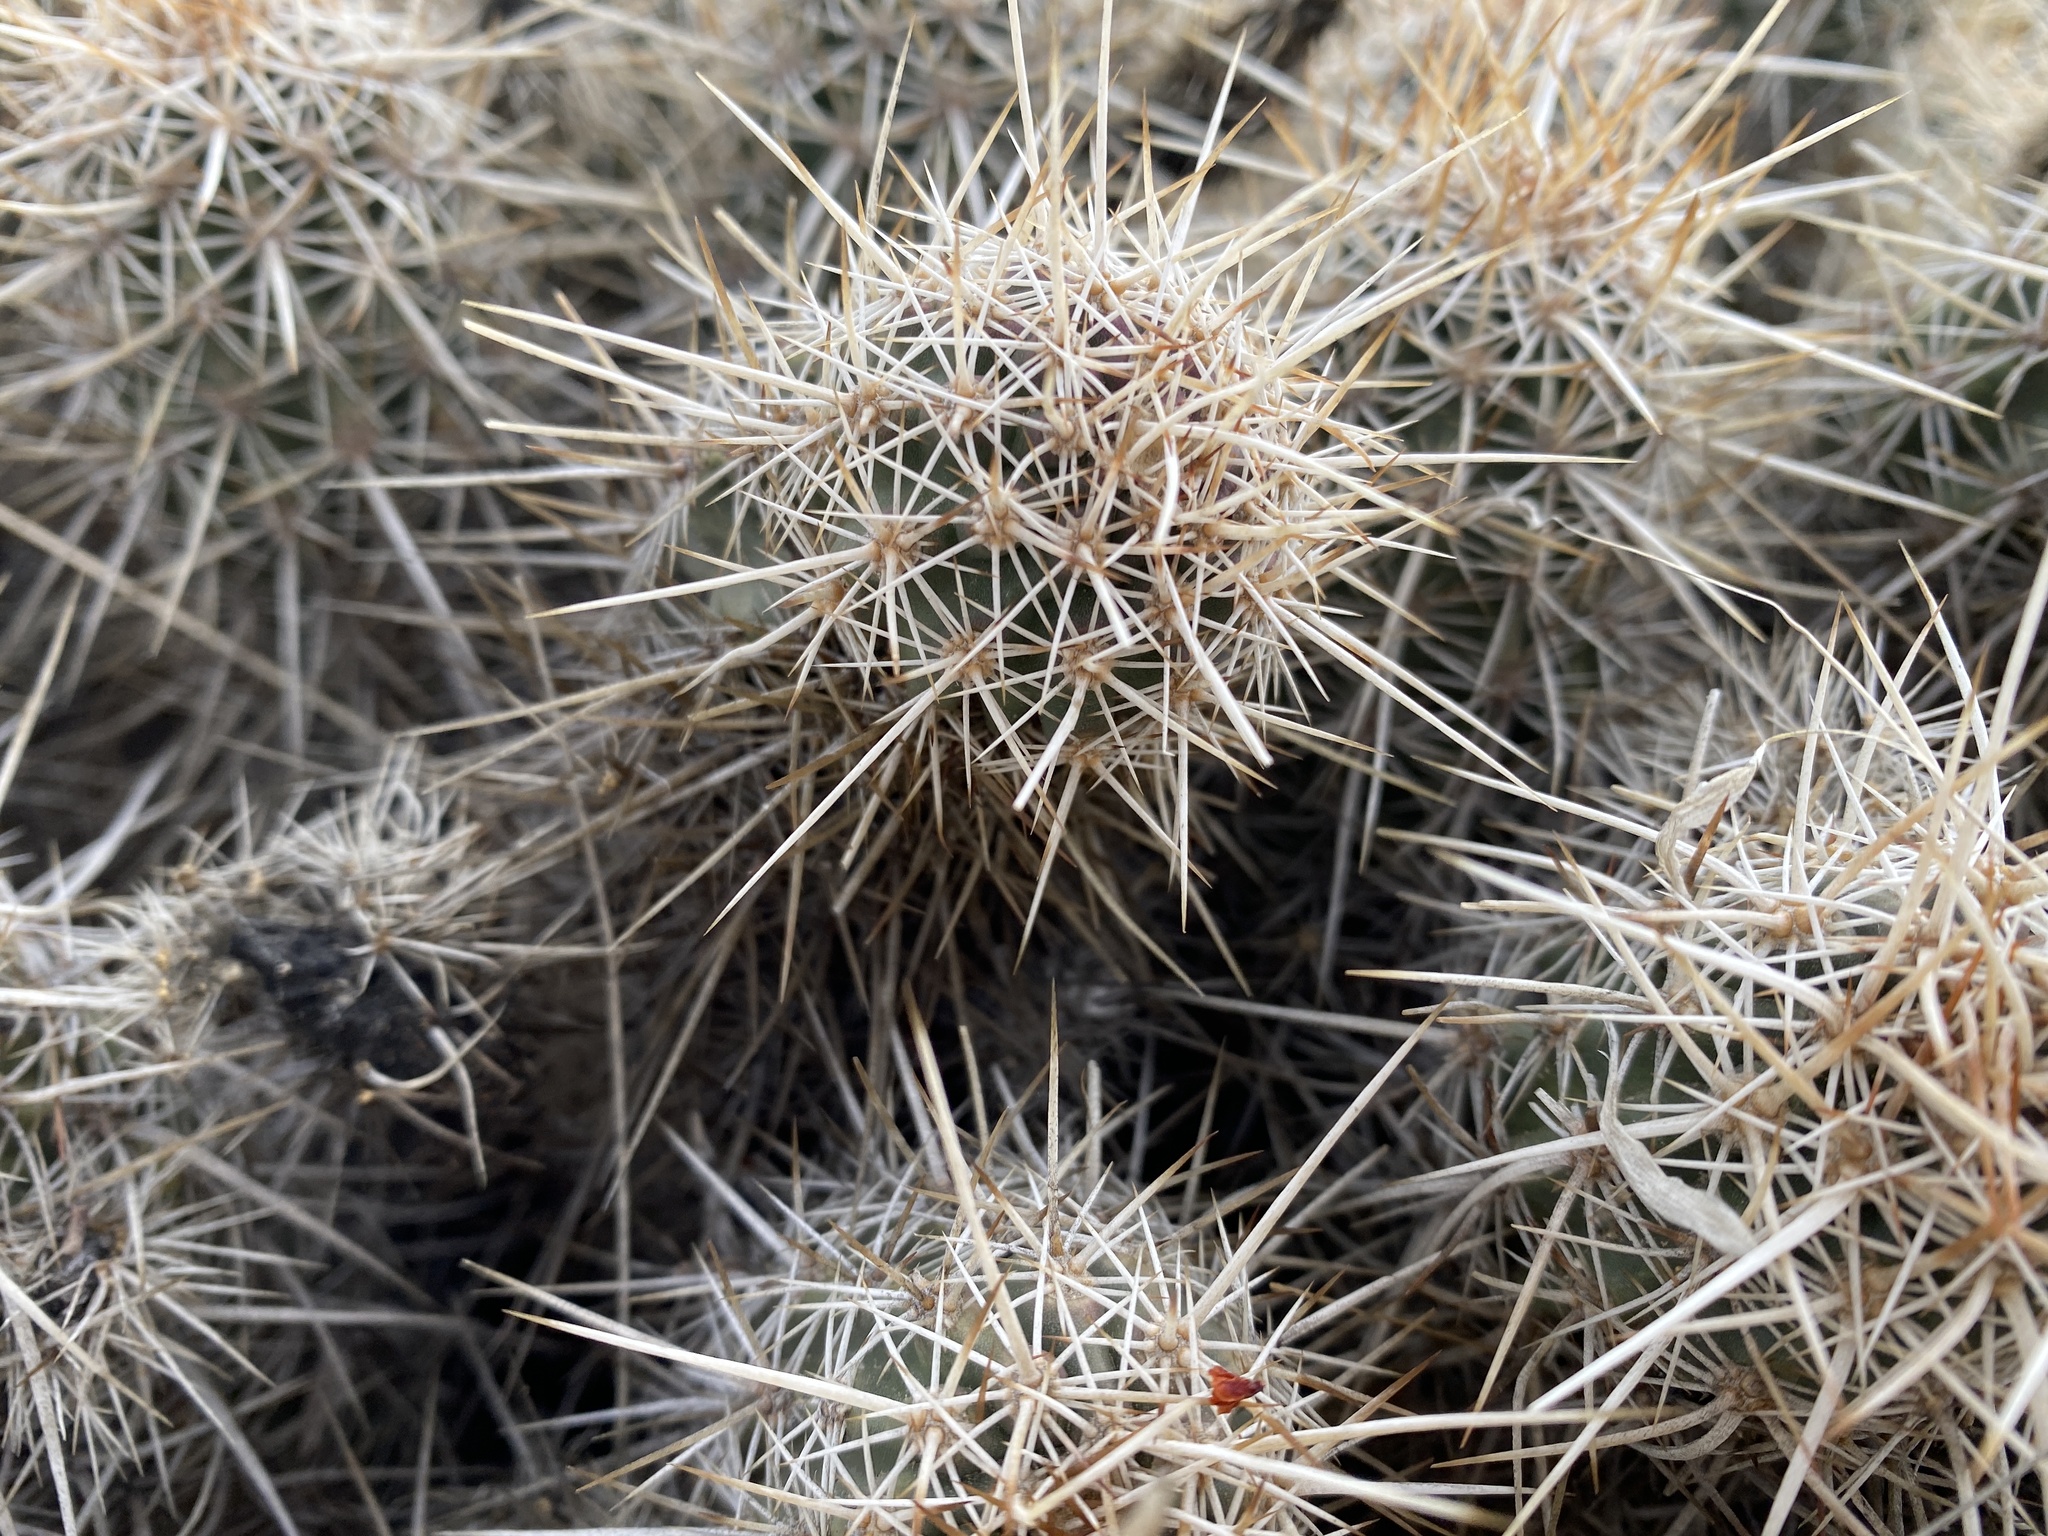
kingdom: Plantae
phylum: Tracheophyta
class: Magnoliopsida
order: Caryophyllales
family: Cactaceae
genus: Echinocereus
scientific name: Echinocereus engelmannii
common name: Engelmann's hedgehog cactus
